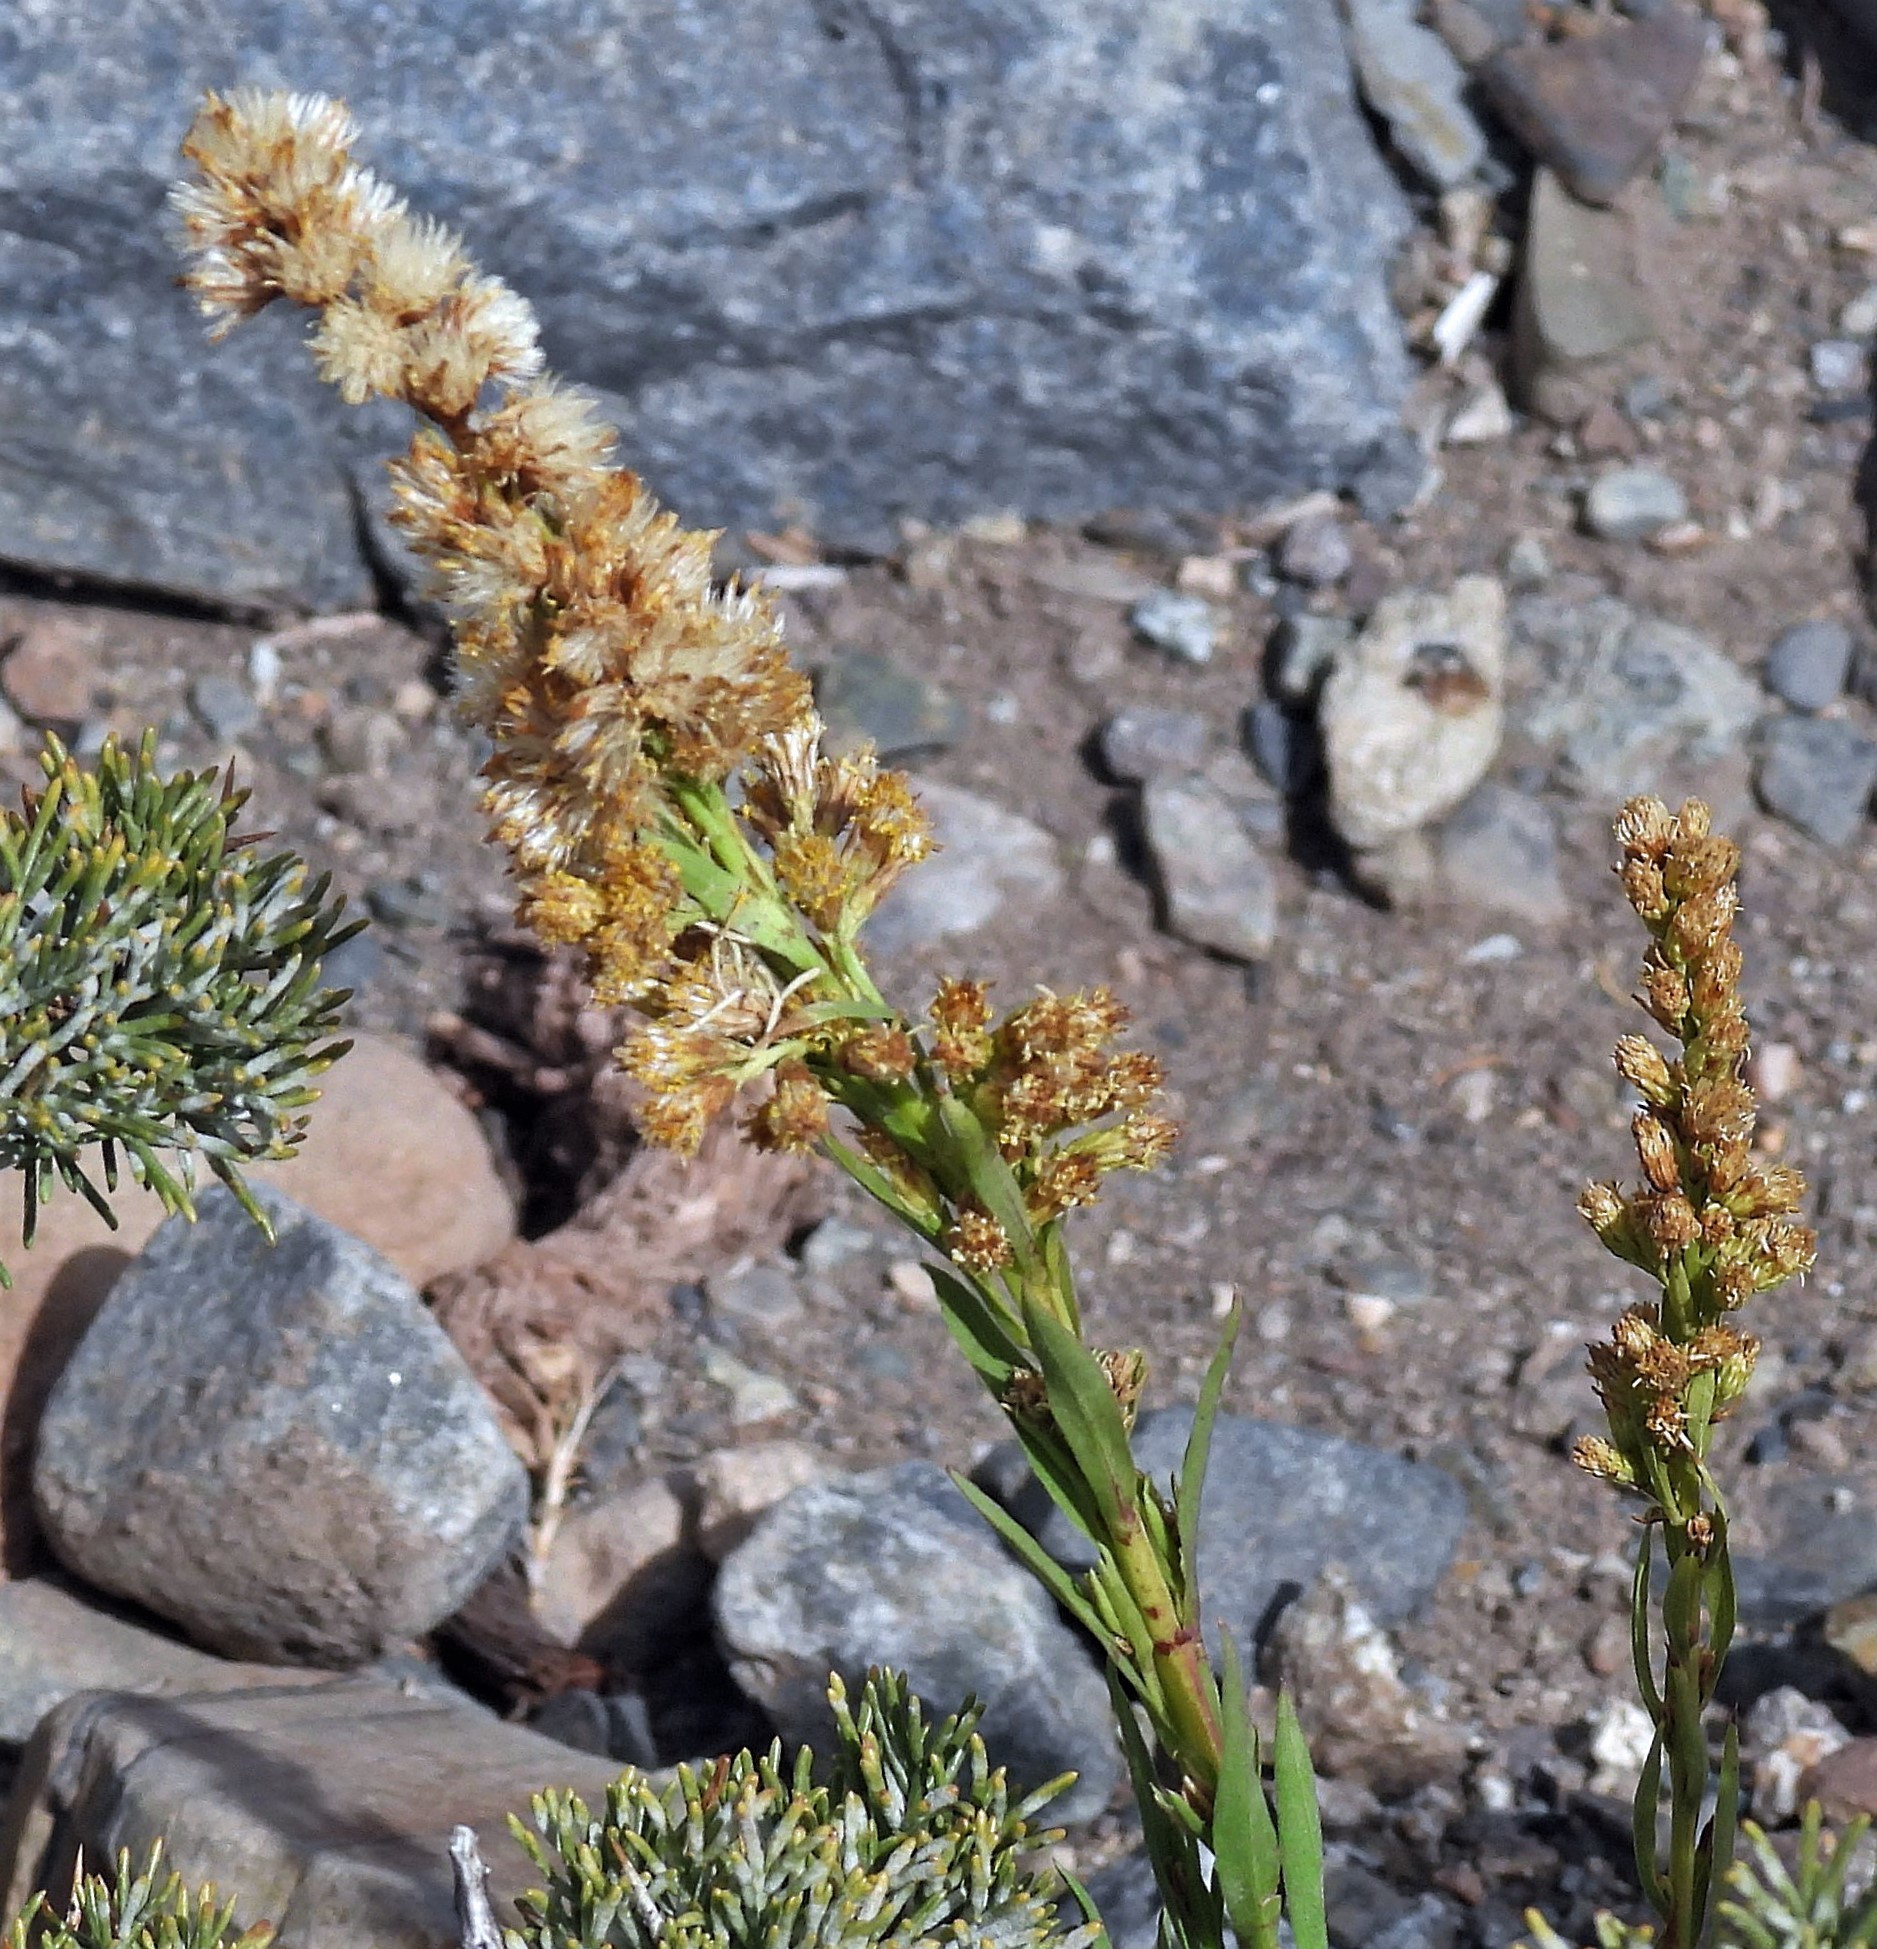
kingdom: Plantae
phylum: Tracheophyta
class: Magnoliopsida
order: Asterales
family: Asteraceae
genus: Solidago
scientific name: Solidago argentinensis
